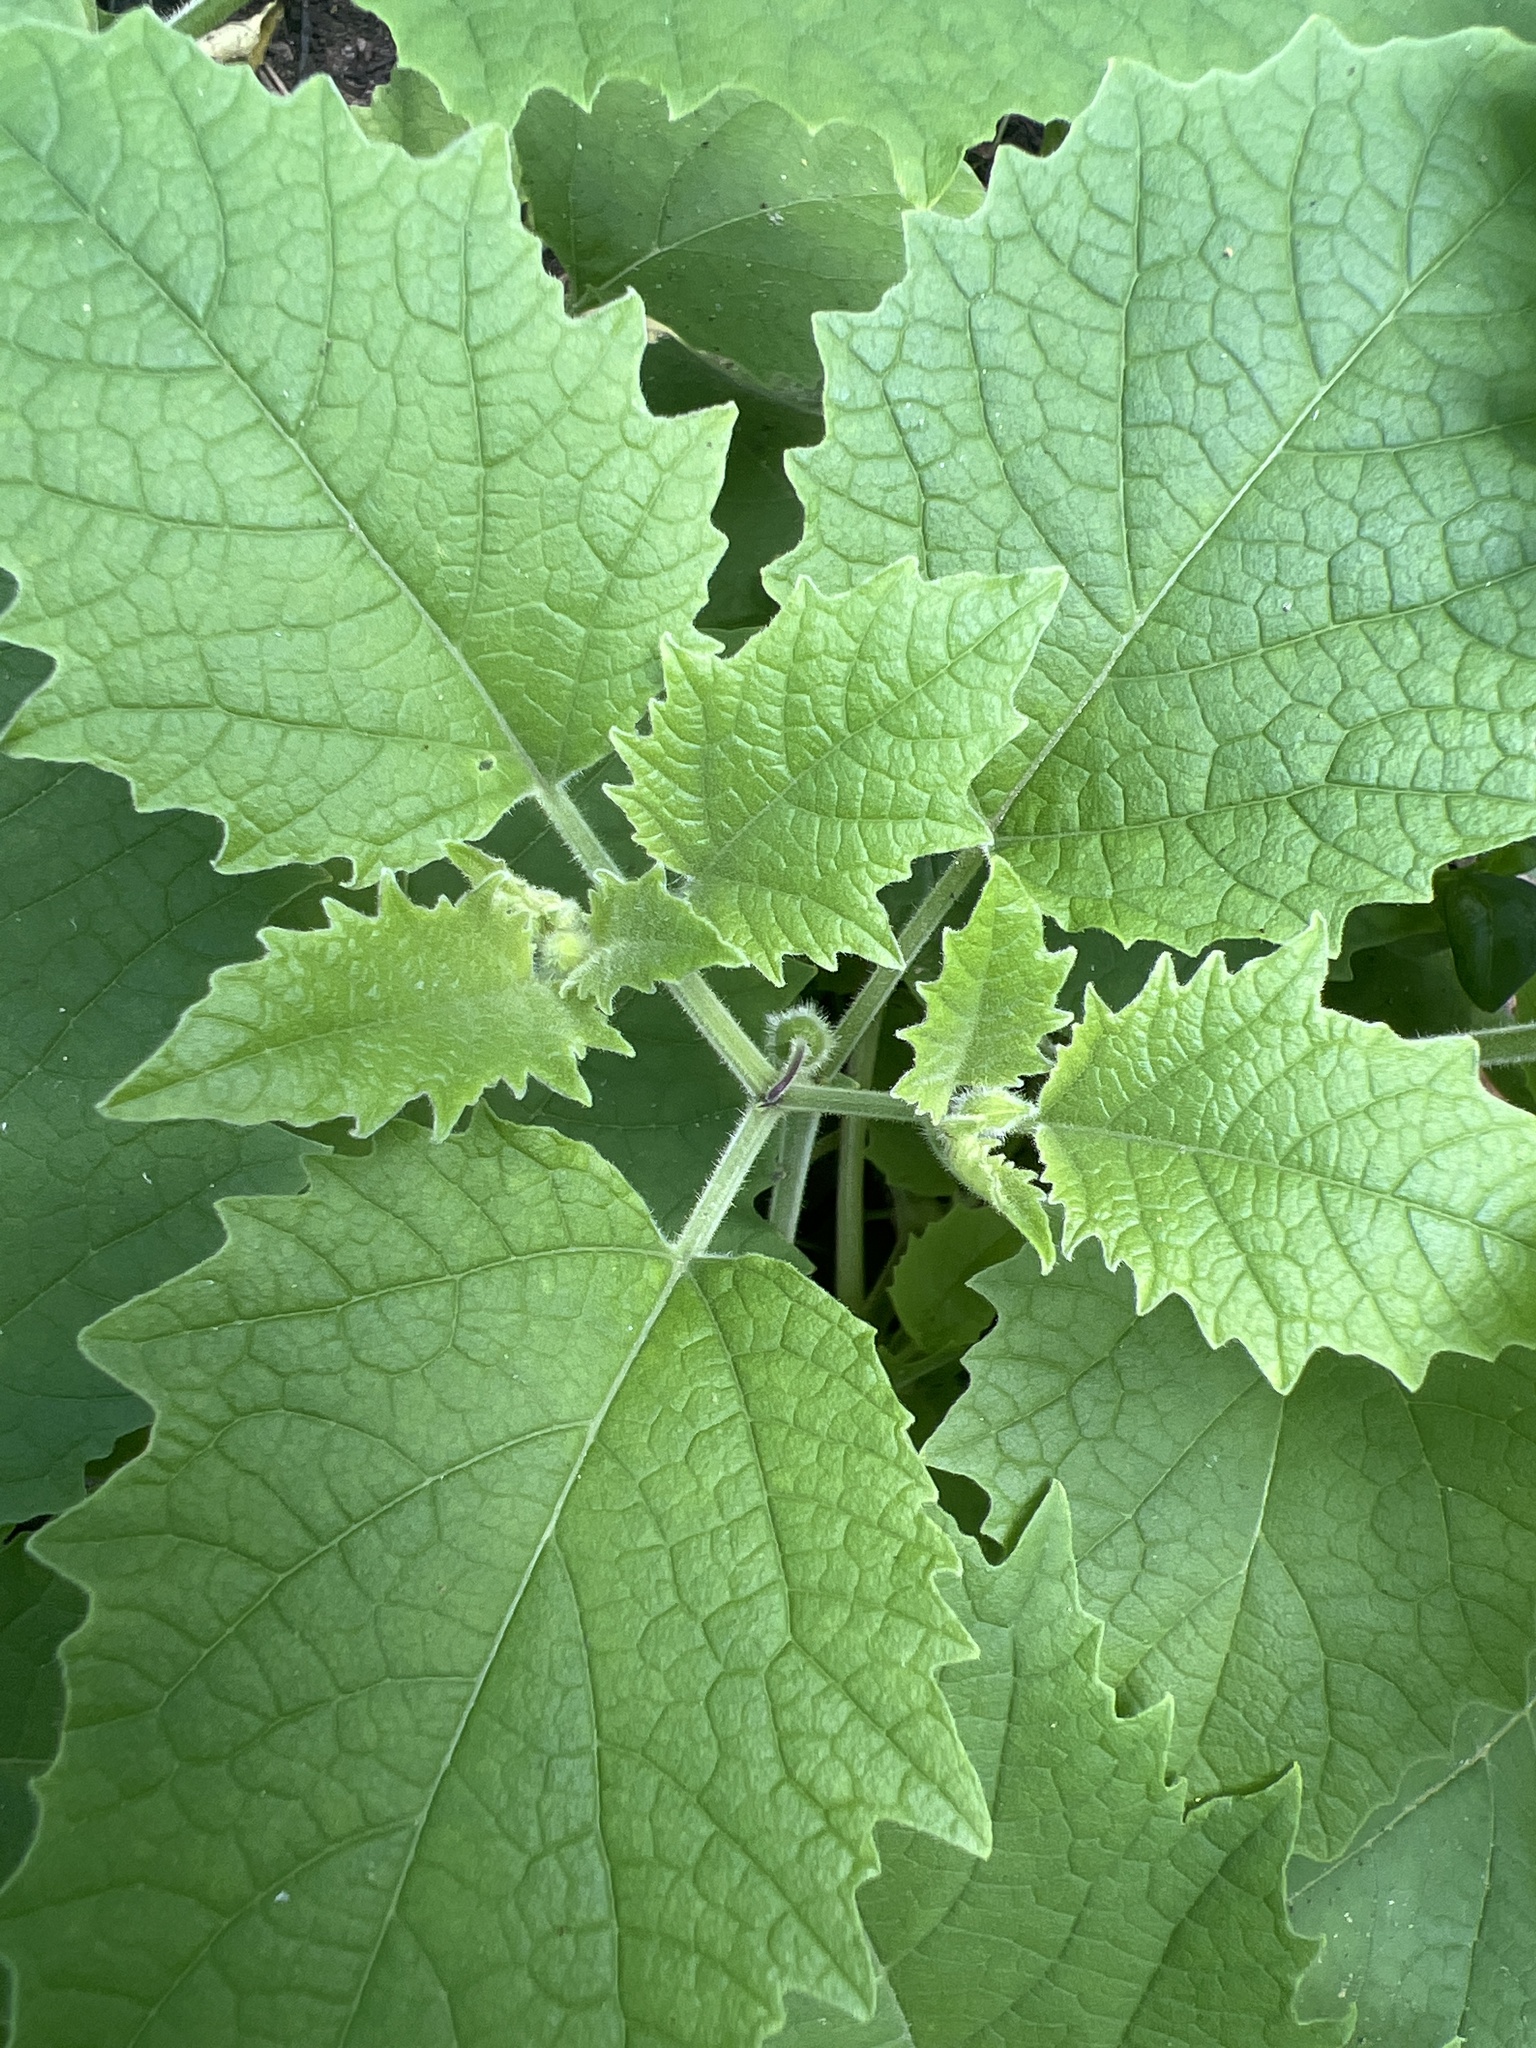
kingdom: Plantae
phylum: Tracheophyta
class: Magnoliopsida
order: Solanales
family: Solanaceae
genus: Physalis
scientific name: Physalis heterophylla
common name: Clammy ground-cherry
